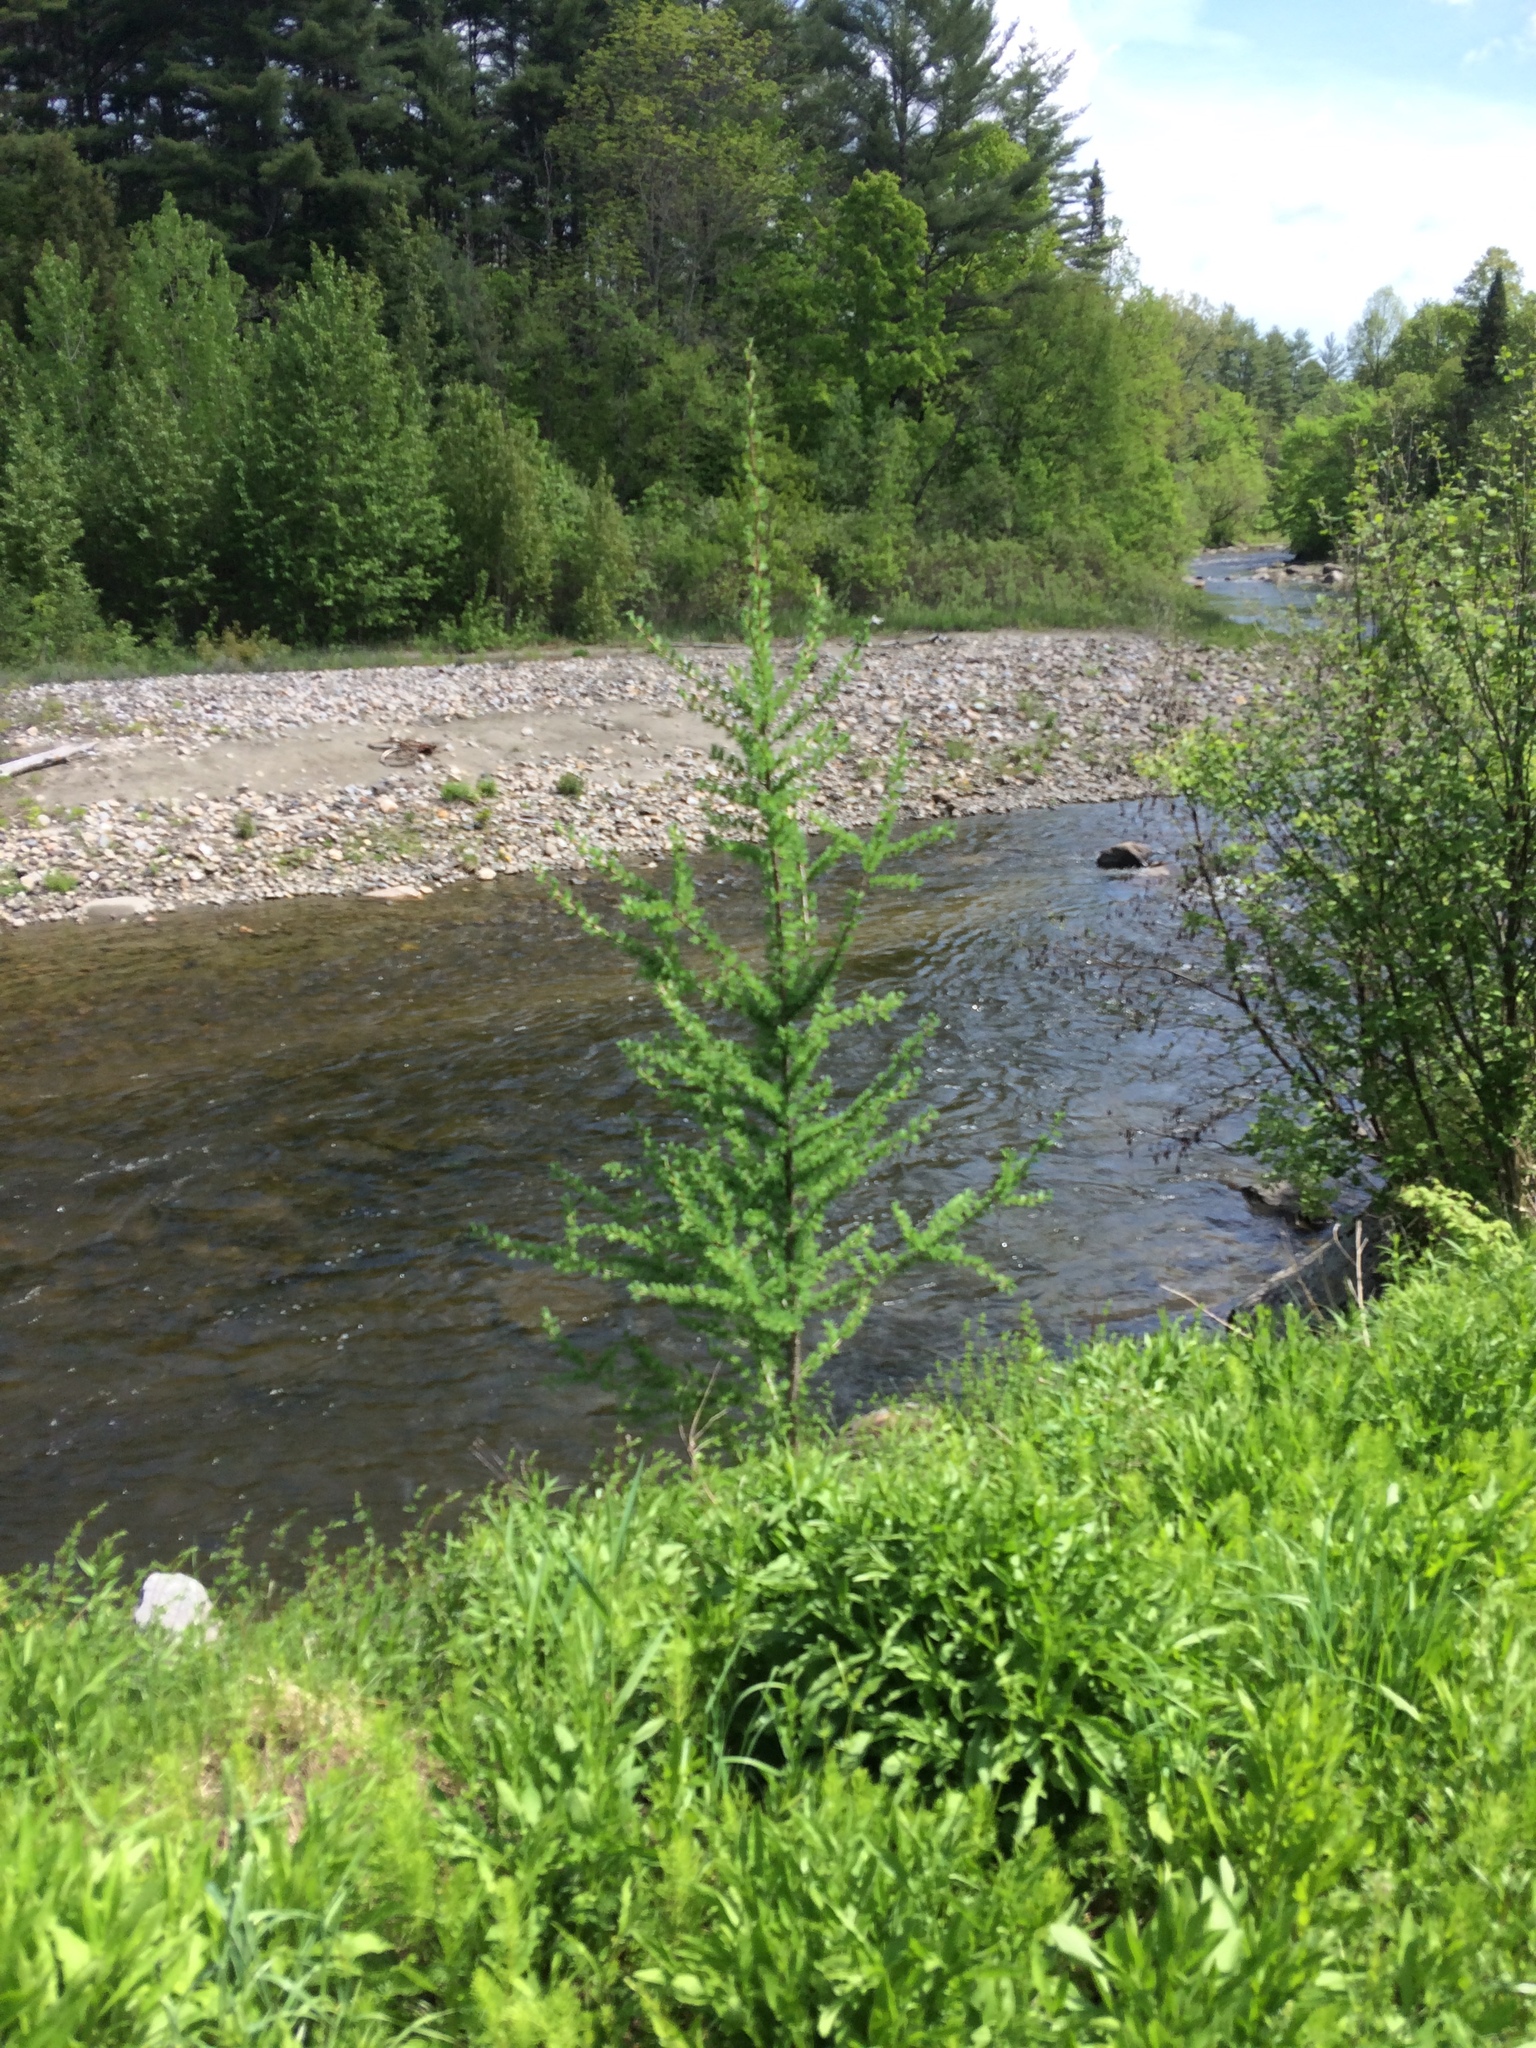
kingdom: Plantae
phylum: Tracheophyta
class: Pinopsida
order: Pinales
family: Pinaceae
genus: Larix
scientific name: Larix laricina
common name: American larch
